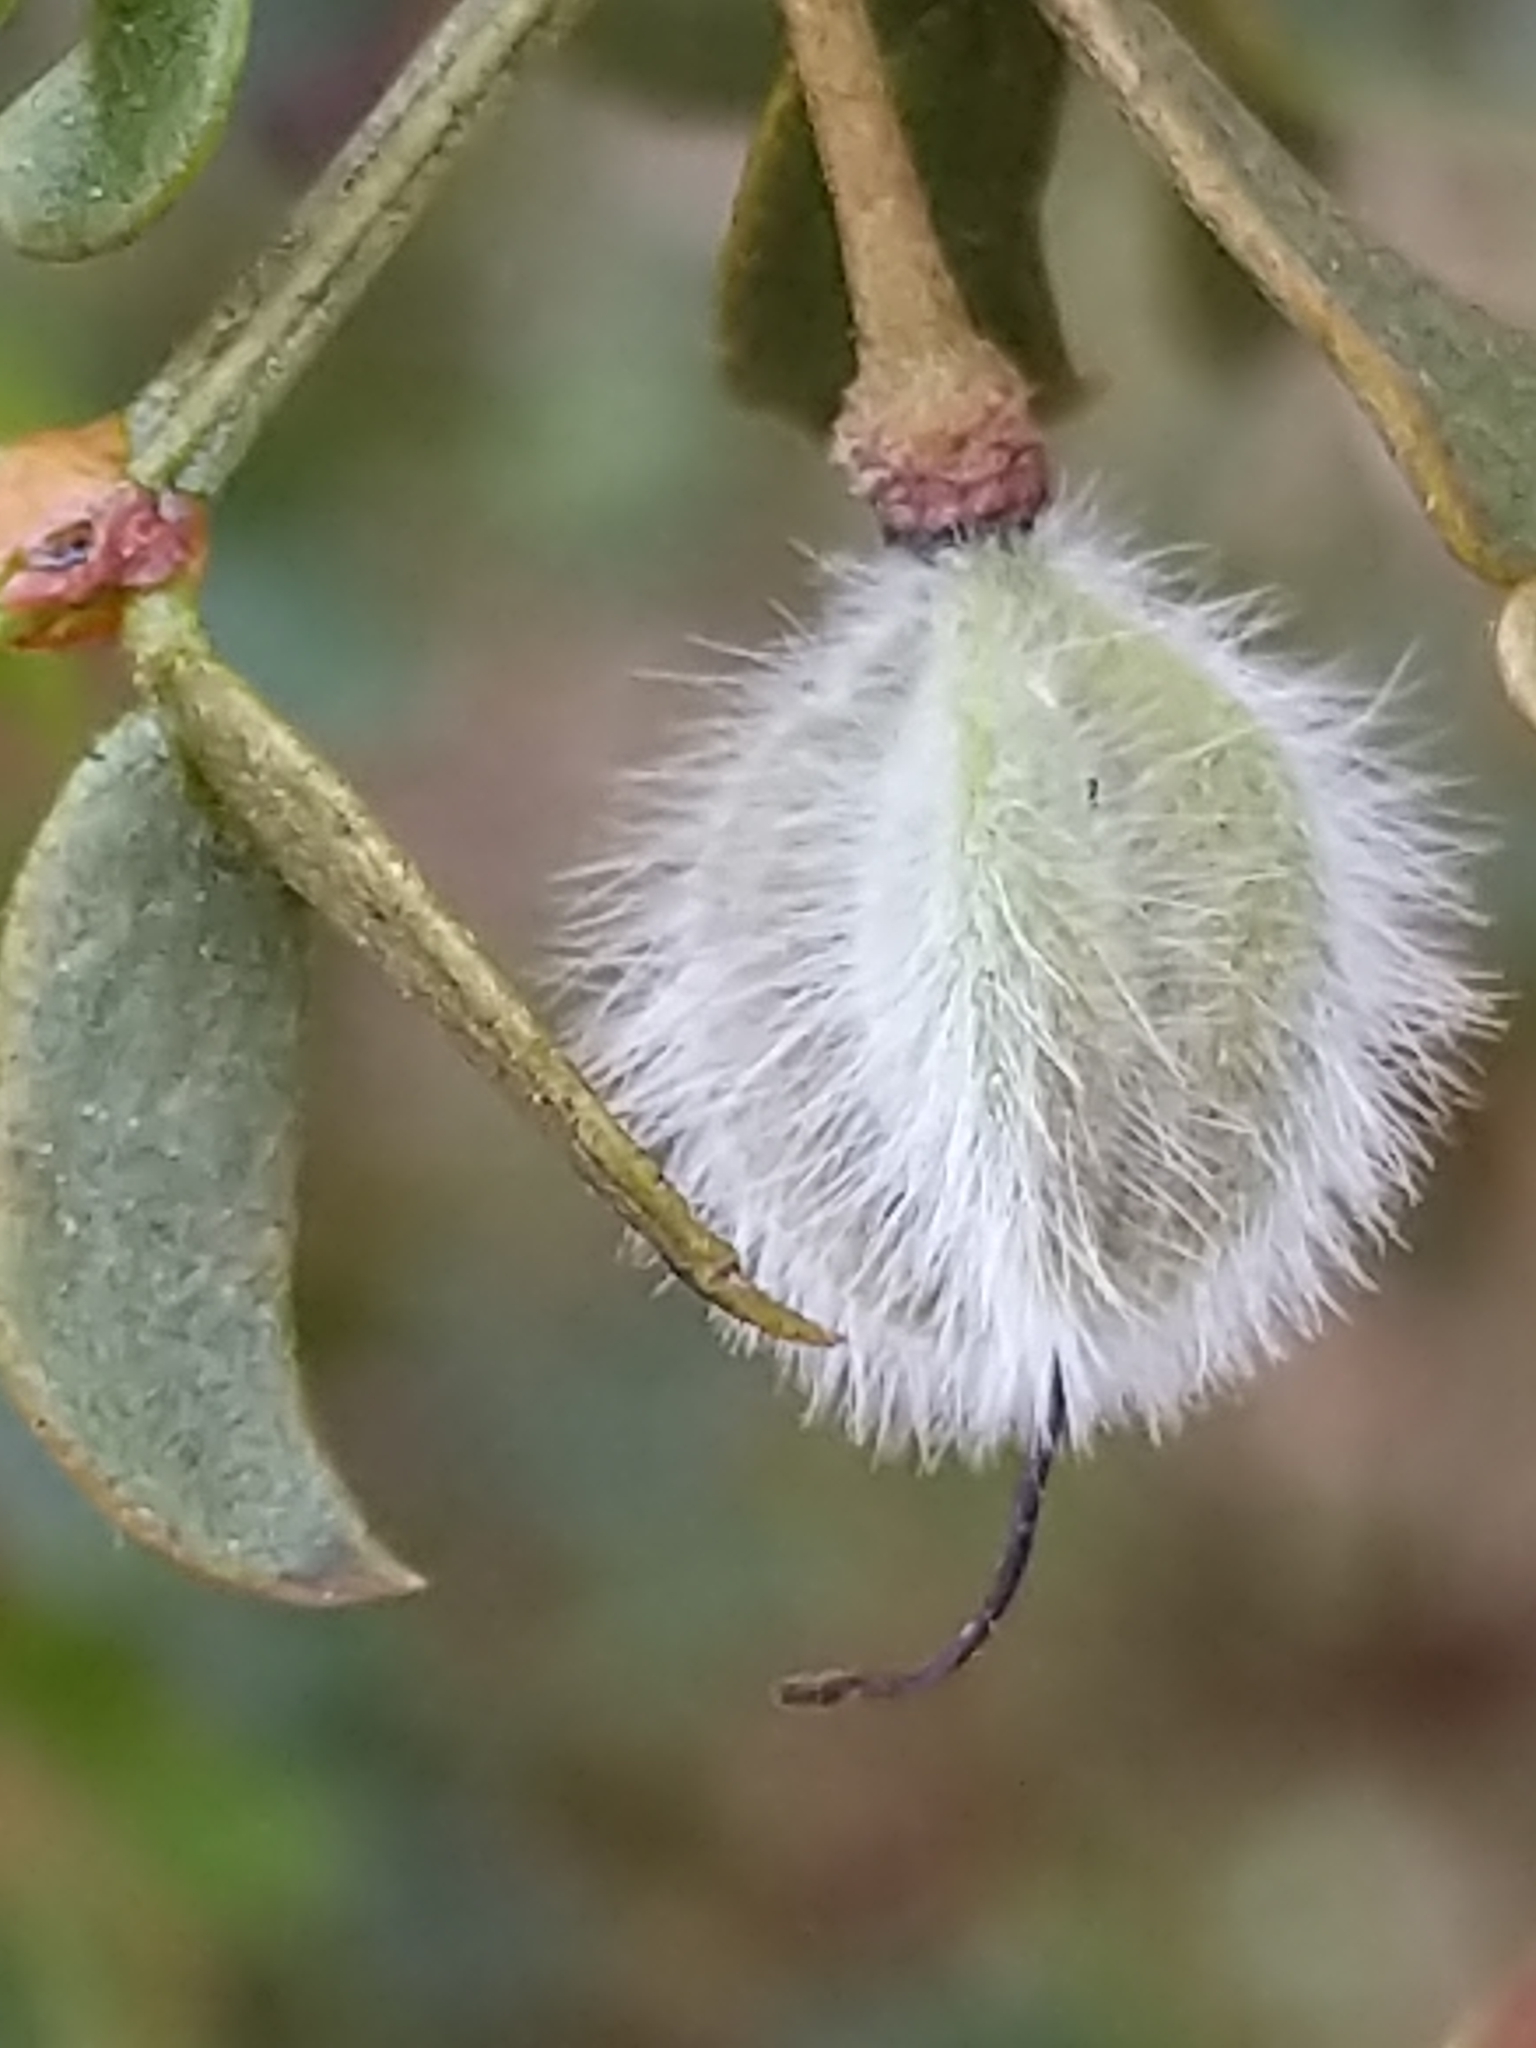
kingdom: Plantae
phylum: Tracheophyta
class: Magnoliopsida
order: Zygophyllales
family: Zygophyllaceae
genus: Larrea
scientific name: Larrea tridentata
